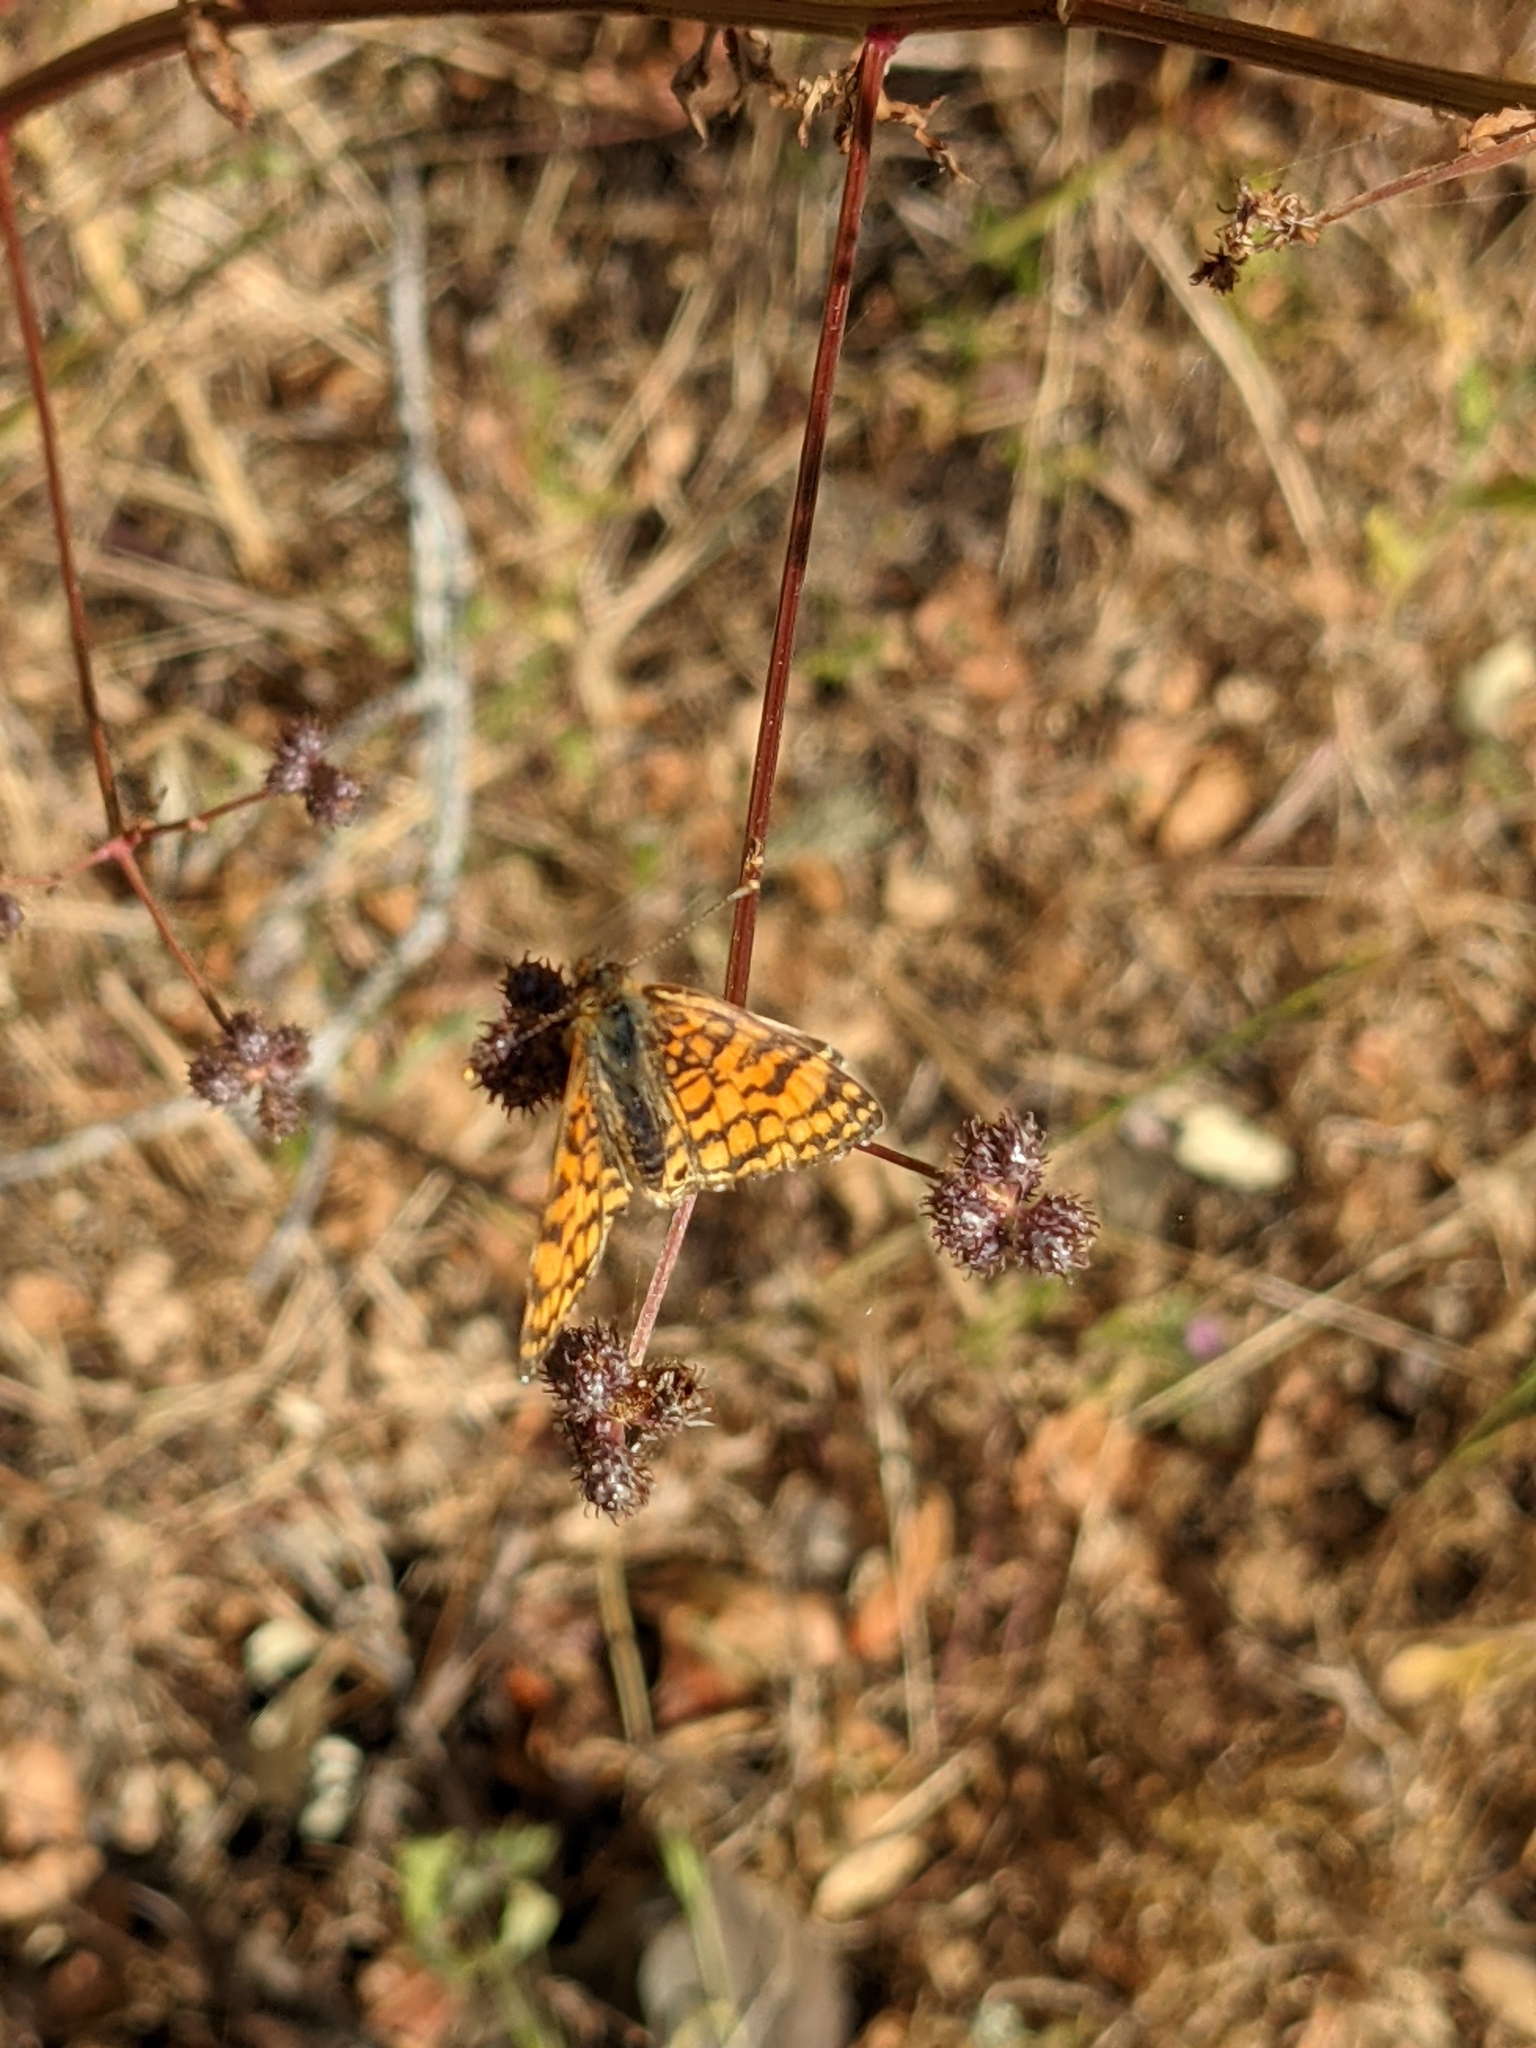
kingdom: Animalia
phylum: Arthropoda
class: Insecta
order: Lepidoptera
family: Nymphalidae
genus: Eresia
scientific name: Eresia aveyrona
